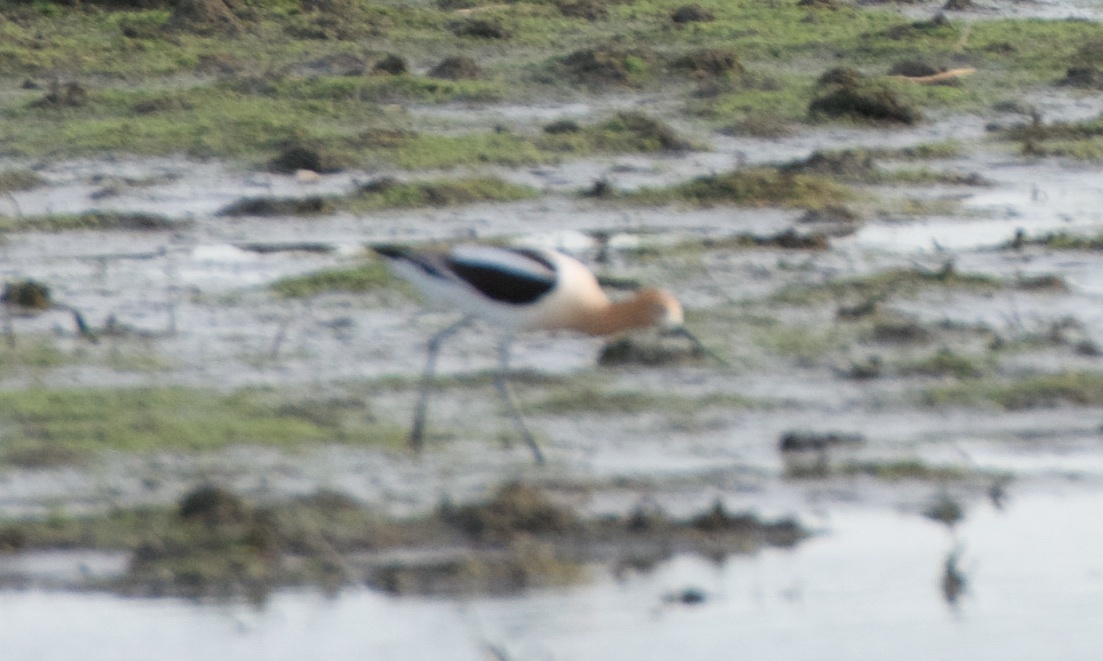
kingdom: Animalia
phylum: Chordata
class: Aves
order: Charadriiformes
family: Recurvirostridae
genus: Recurvirostra
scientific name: Recurvirostra americana
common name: American avocet
